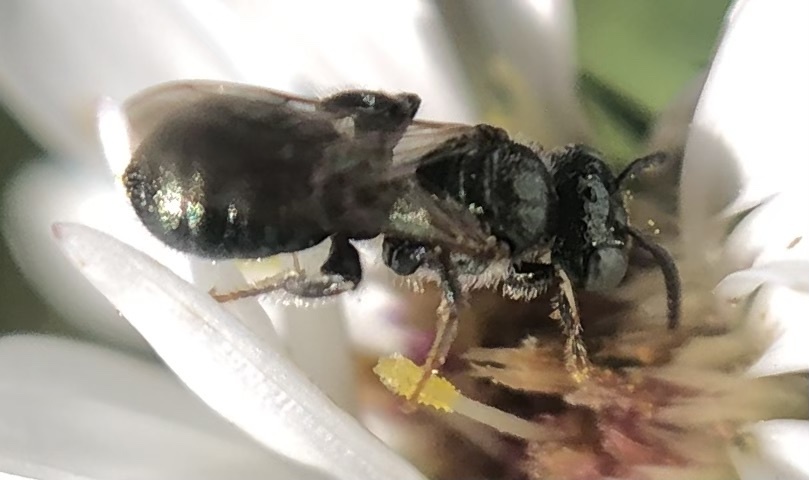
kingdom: Animalia
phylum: Arthropoda
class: Insecta
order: Hymenoptera
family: Apidae
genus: Ceratina
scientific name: Ceratina strenua
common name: Nimble carpenter bee
